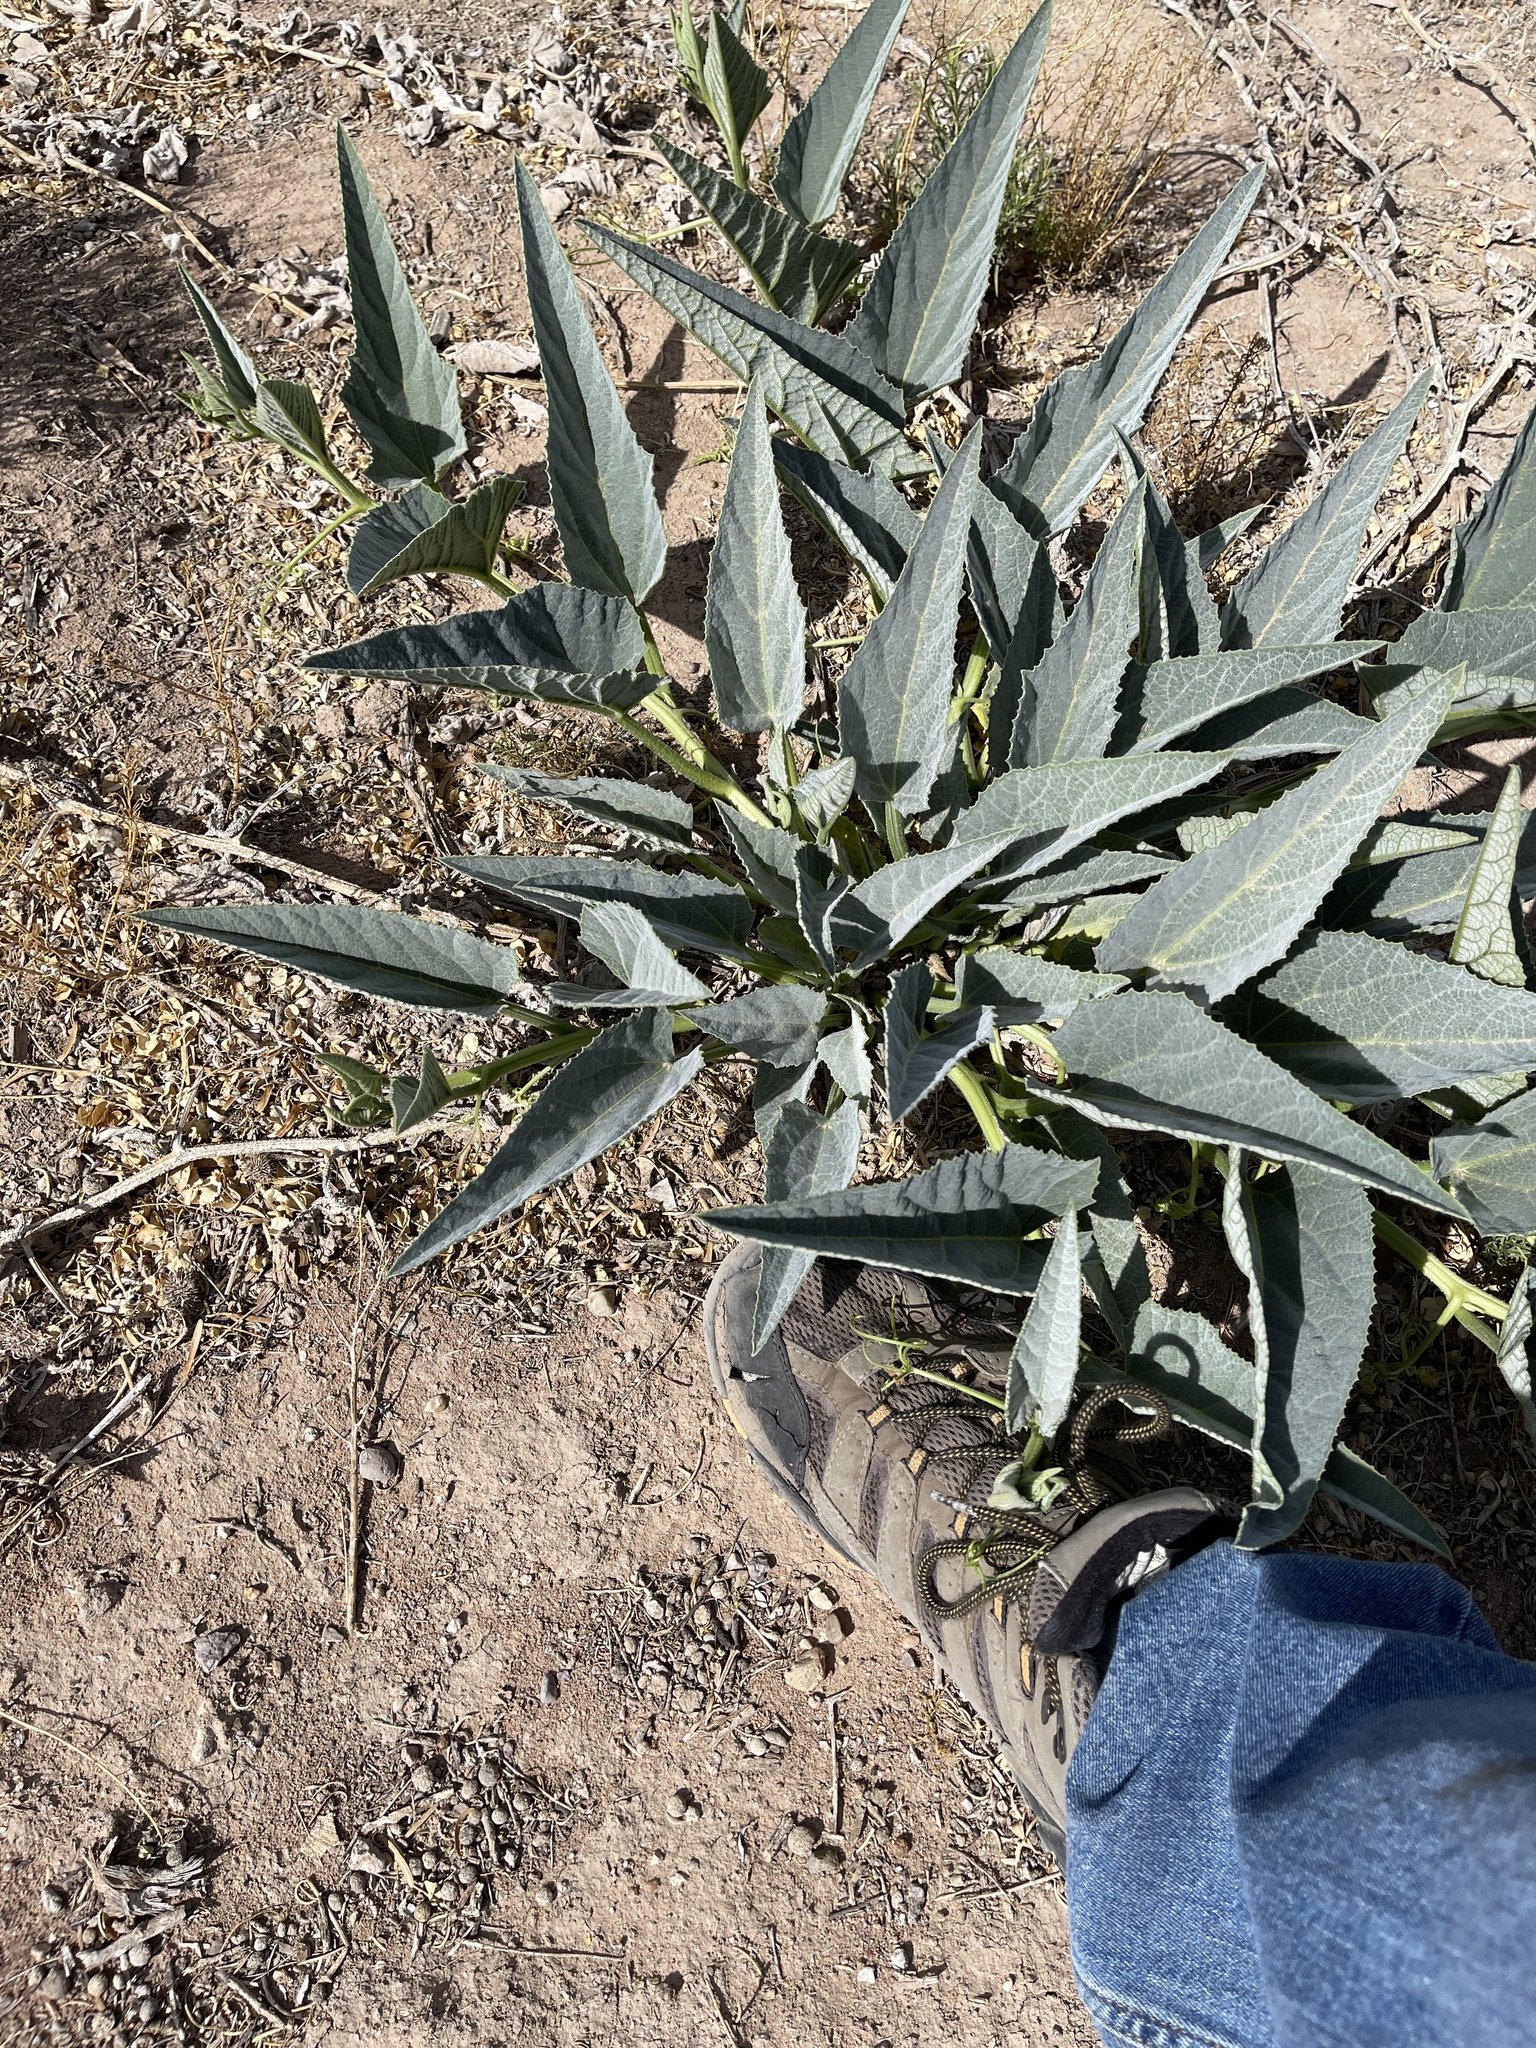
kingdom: Plantae
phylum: Tracheophyta
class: Magnoliopsida
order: Cucurbitales
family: Cucurbitaceae
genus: Cucurbita
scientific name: Cucurbita foetidissima
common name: Buffalo gourd
